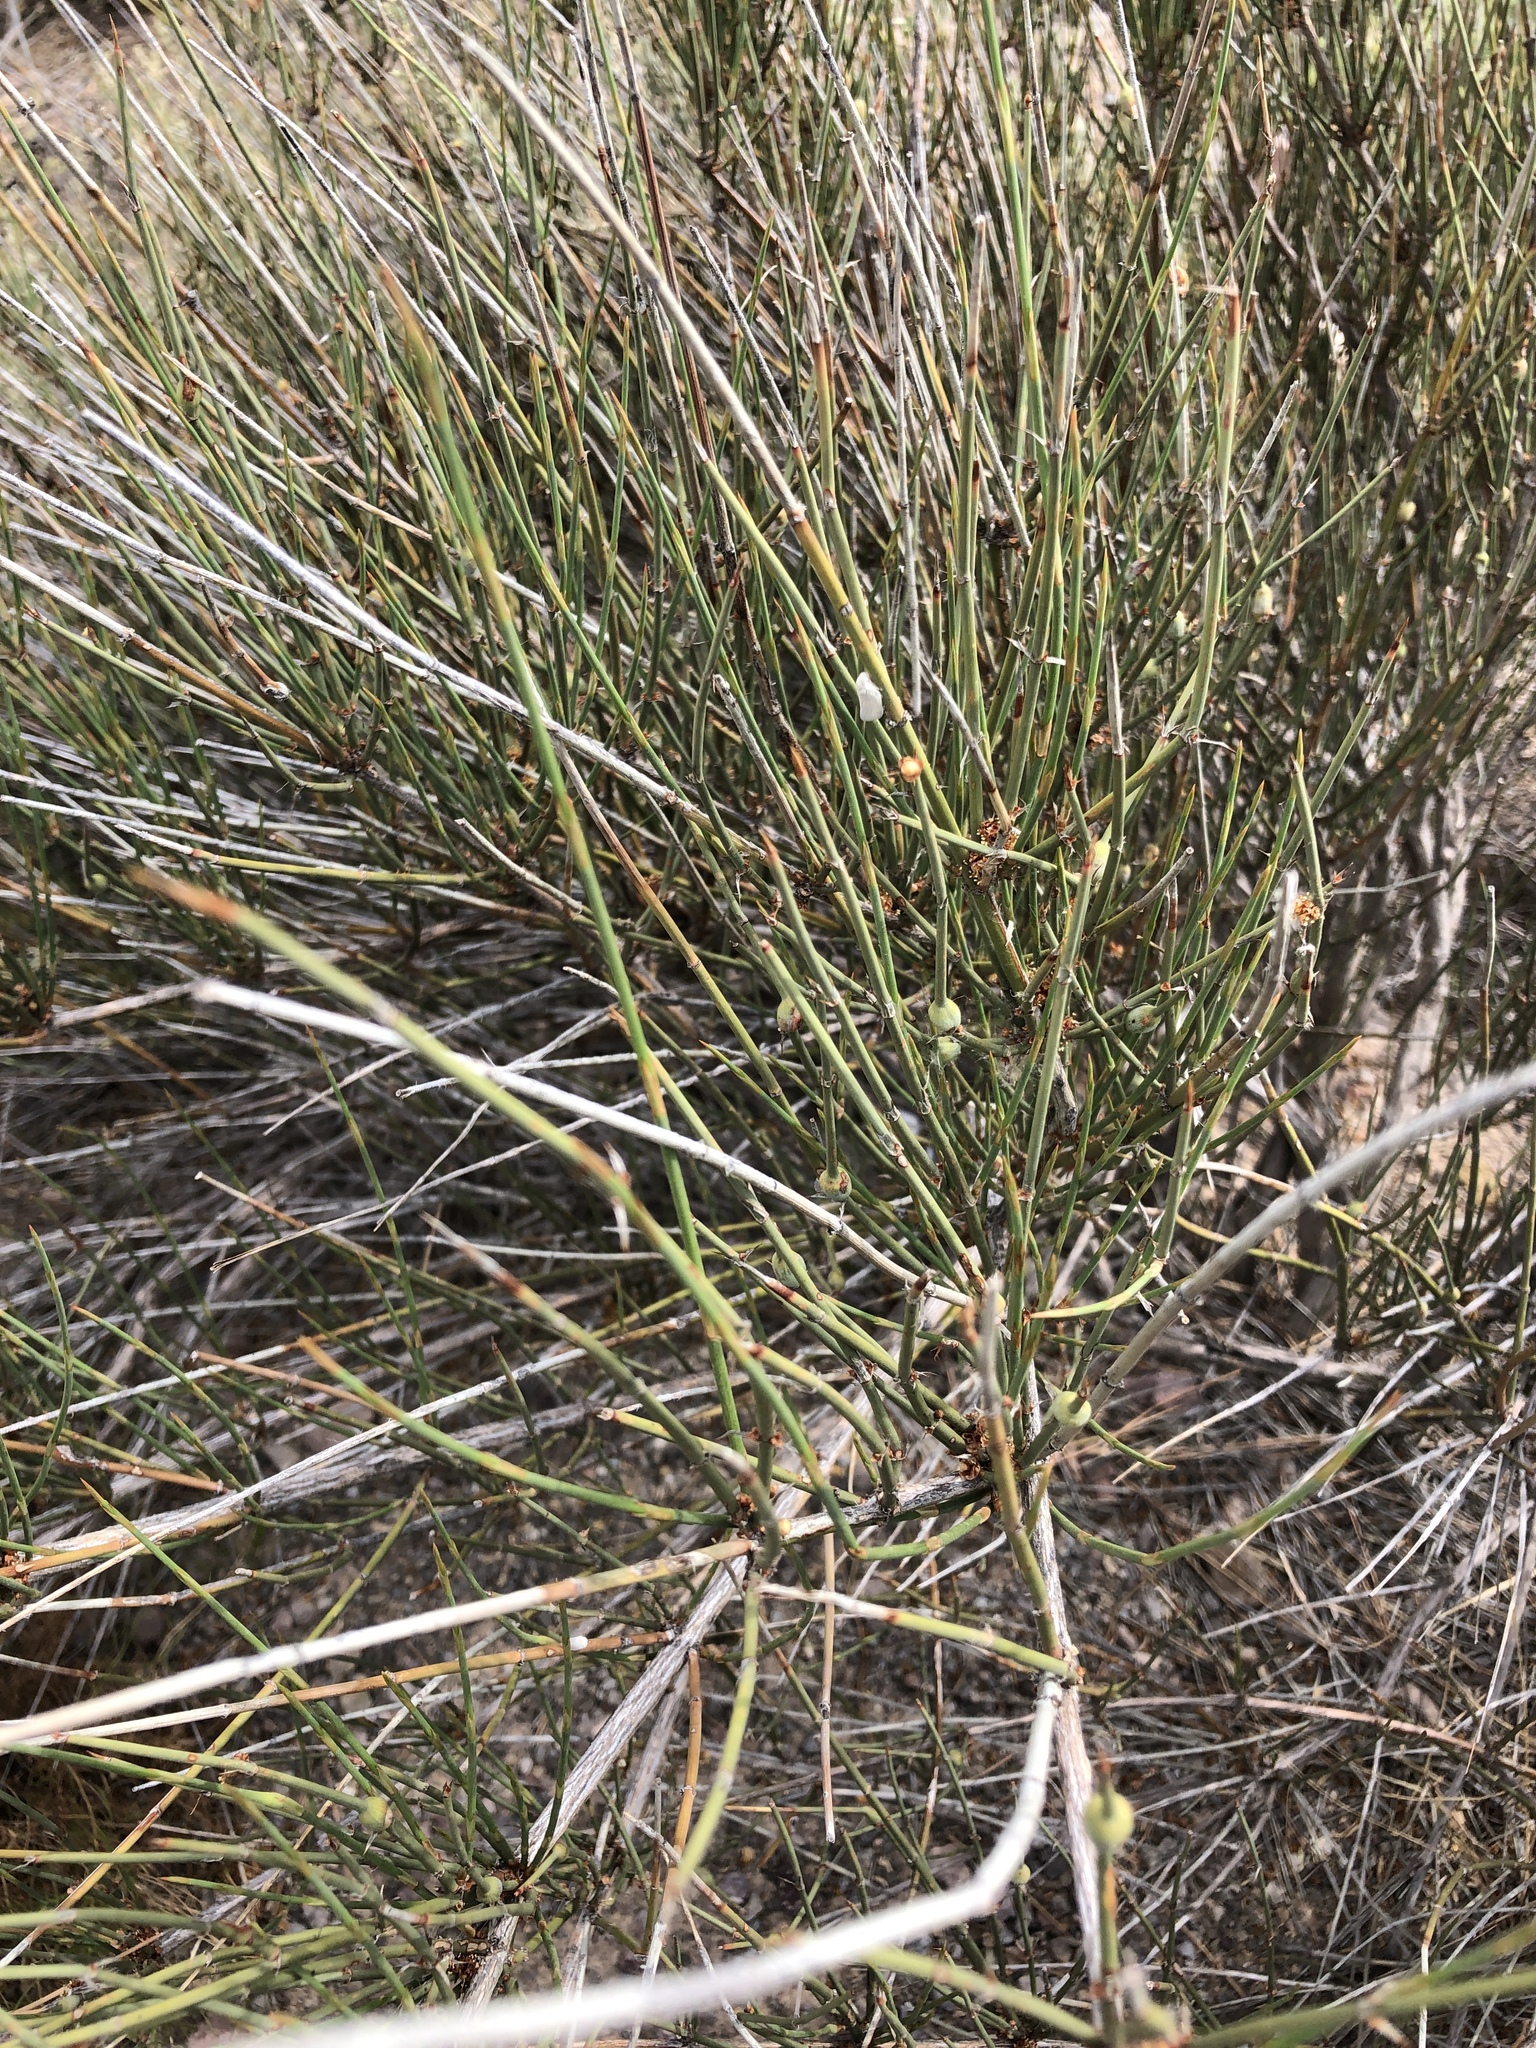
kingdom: Plantae
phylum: Tracheophyta
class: Gnetopsida
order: Ephedrales
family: Ephedraceae
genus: Ephedra
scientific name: Ephedra trifurca
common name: Mexican-tea
